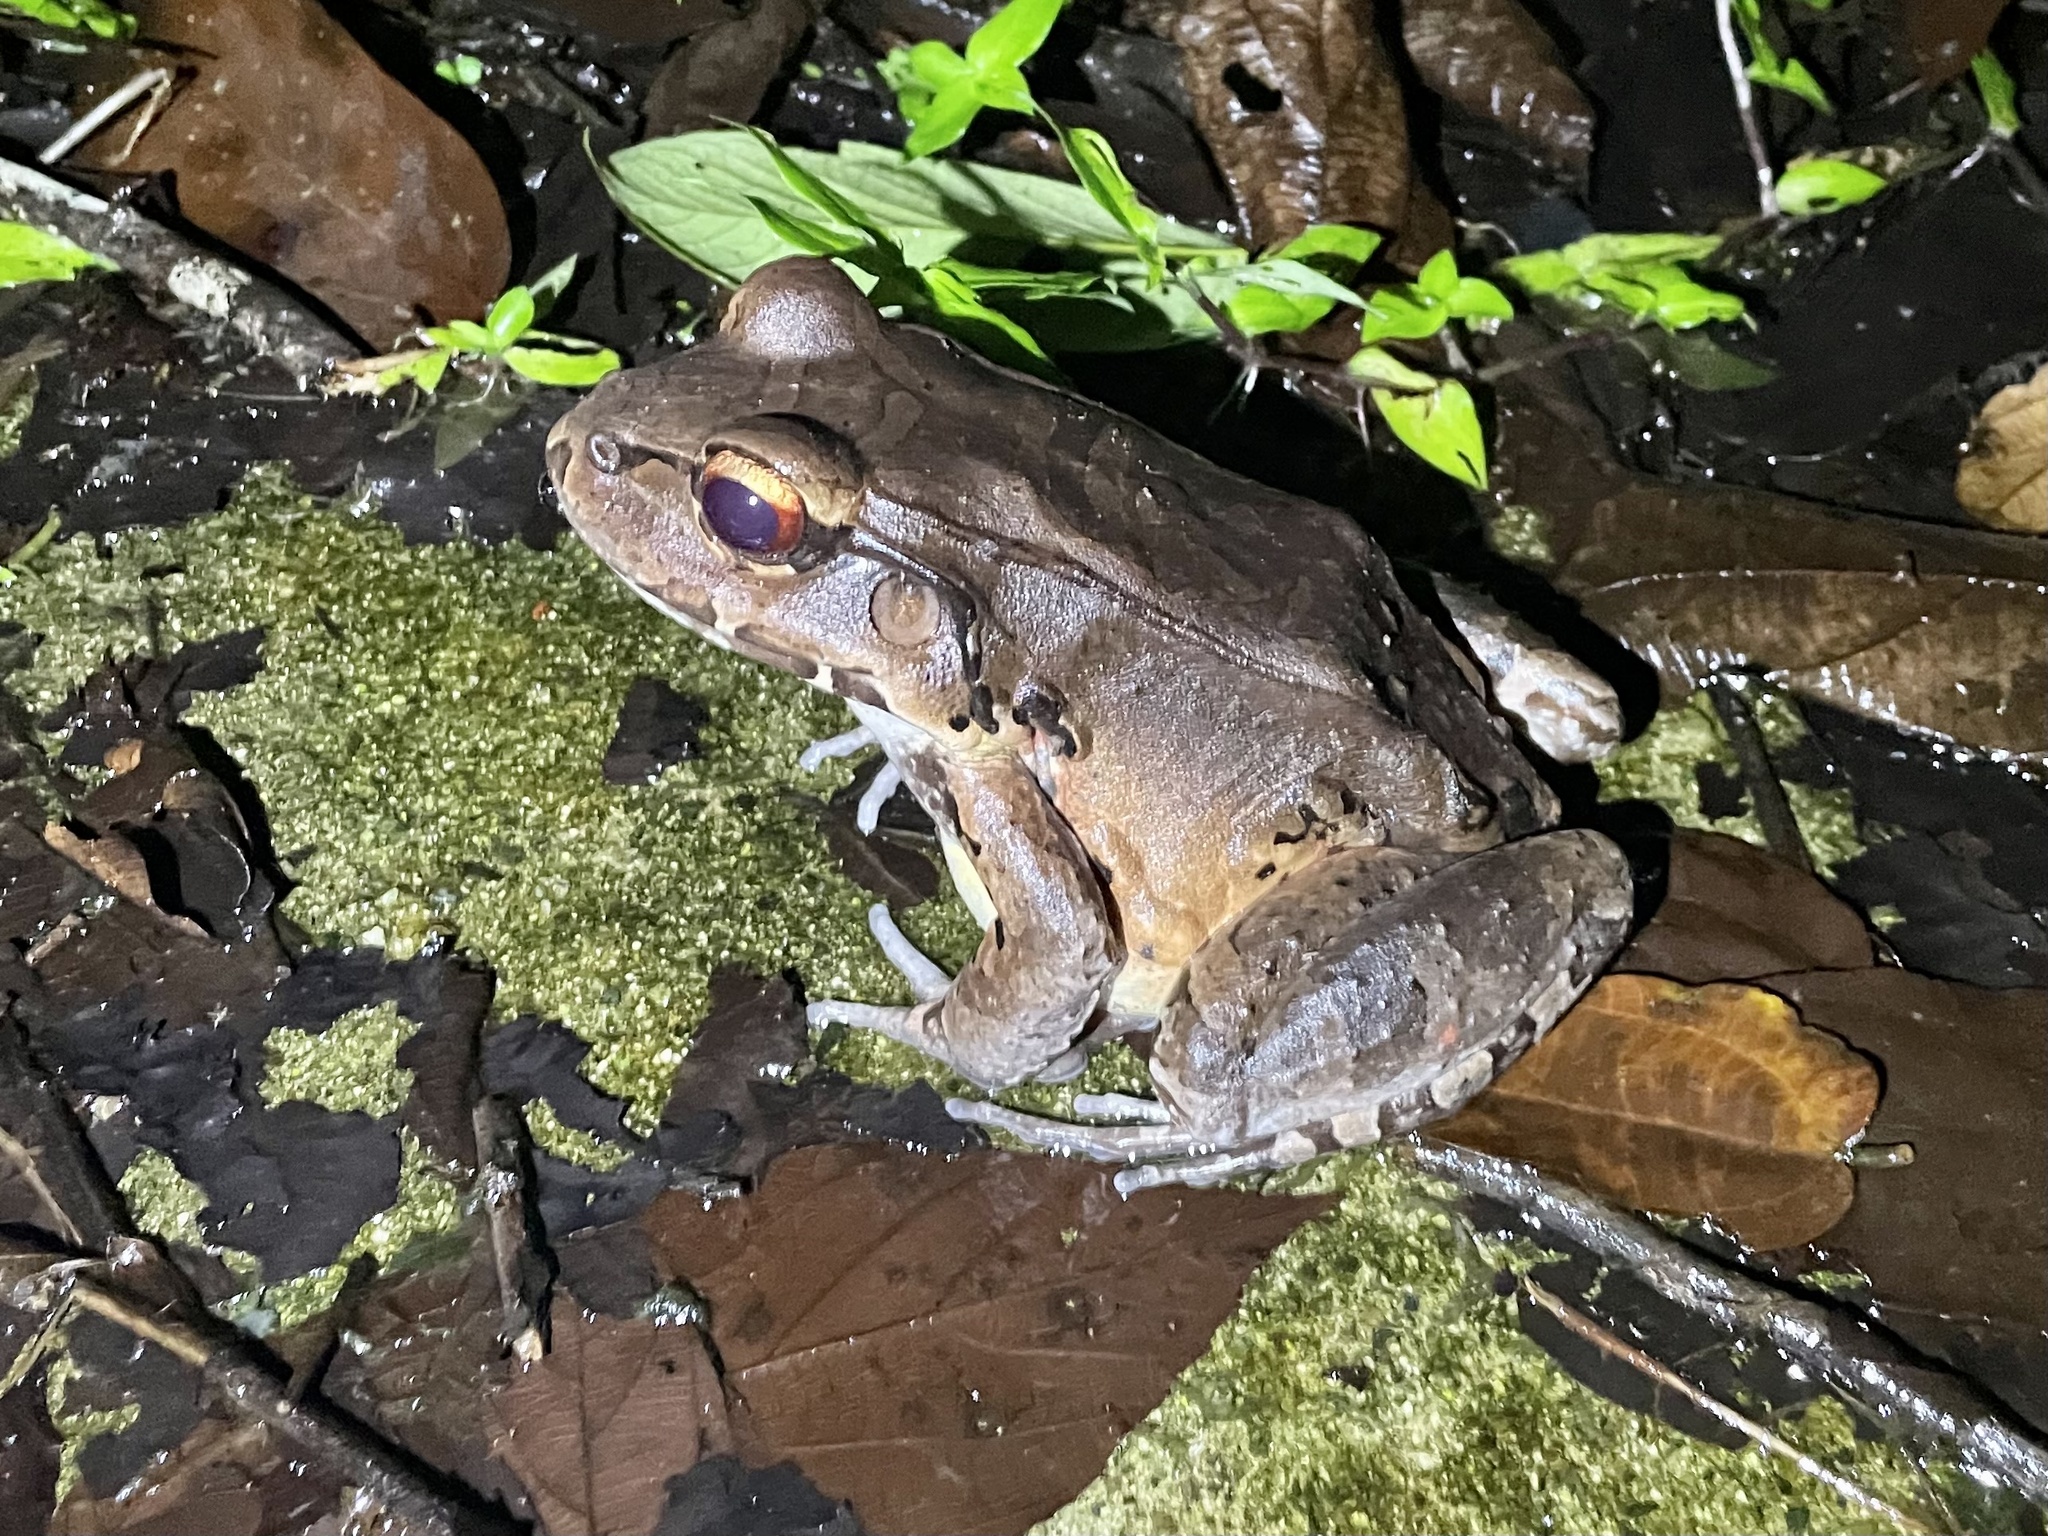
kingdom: Animalia
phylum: Chordata
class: Amphibia
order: Anura
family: Leptodactylidae
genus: Leptodactylus
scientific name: Leptodactylus savagei
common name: Savage's thin-toed frog
